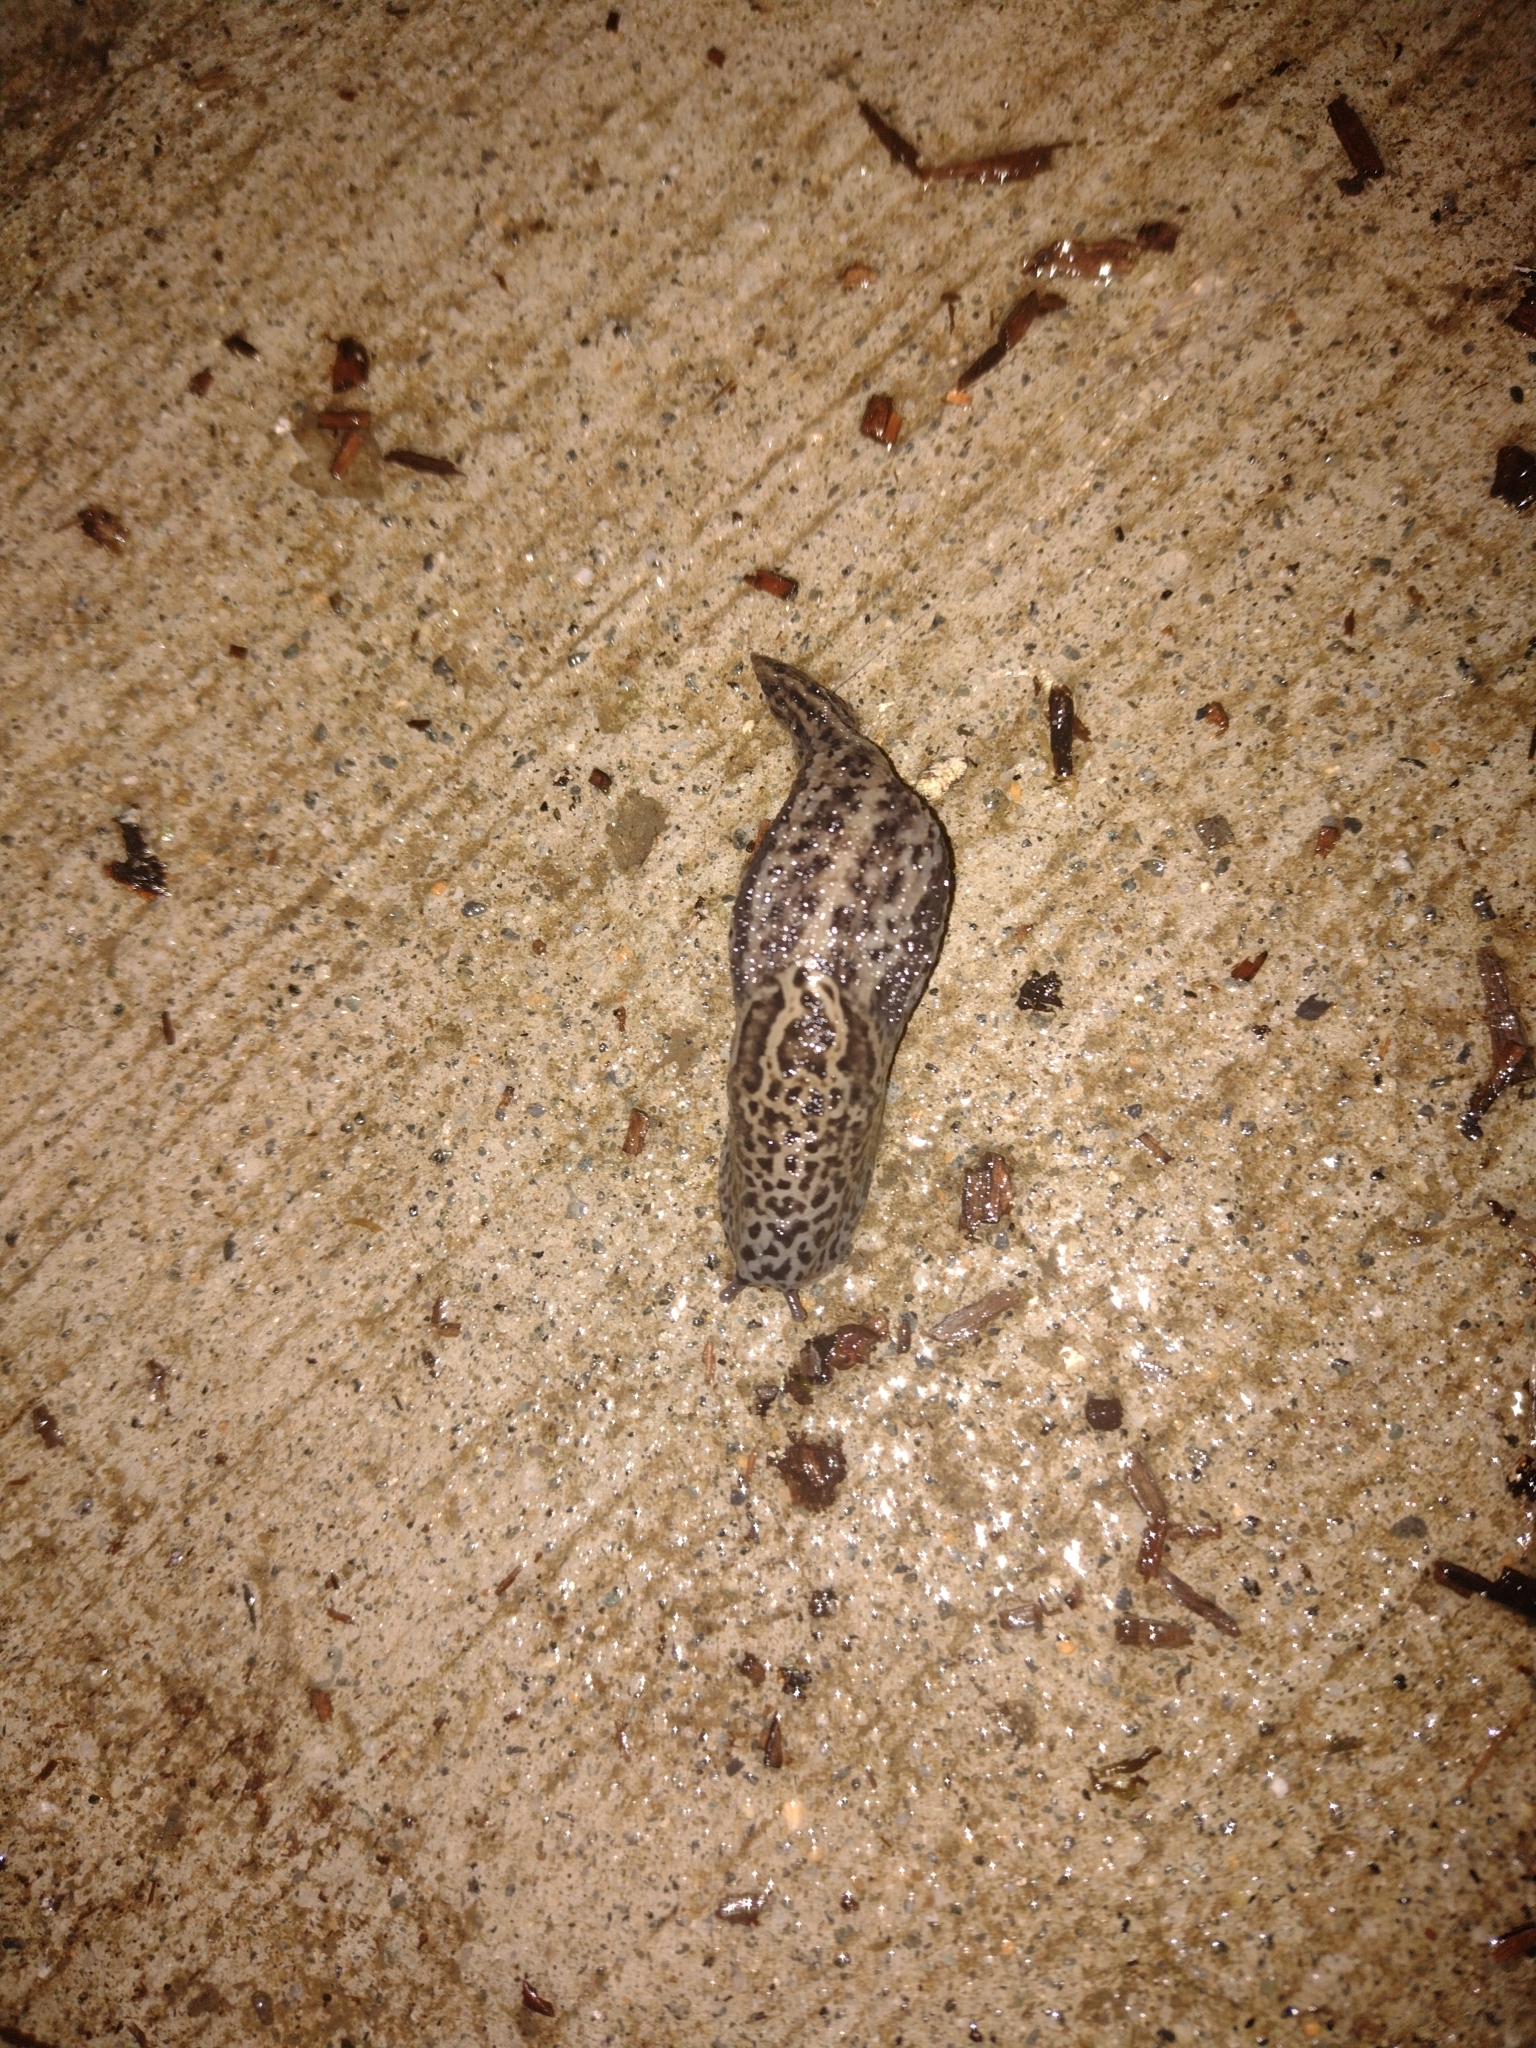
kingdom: Animalia
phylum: Mollusca
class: Gastropoda
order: Stylommatophora
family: Limacidae
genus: Limax
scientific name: Limax maximus
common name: Great grey slug
